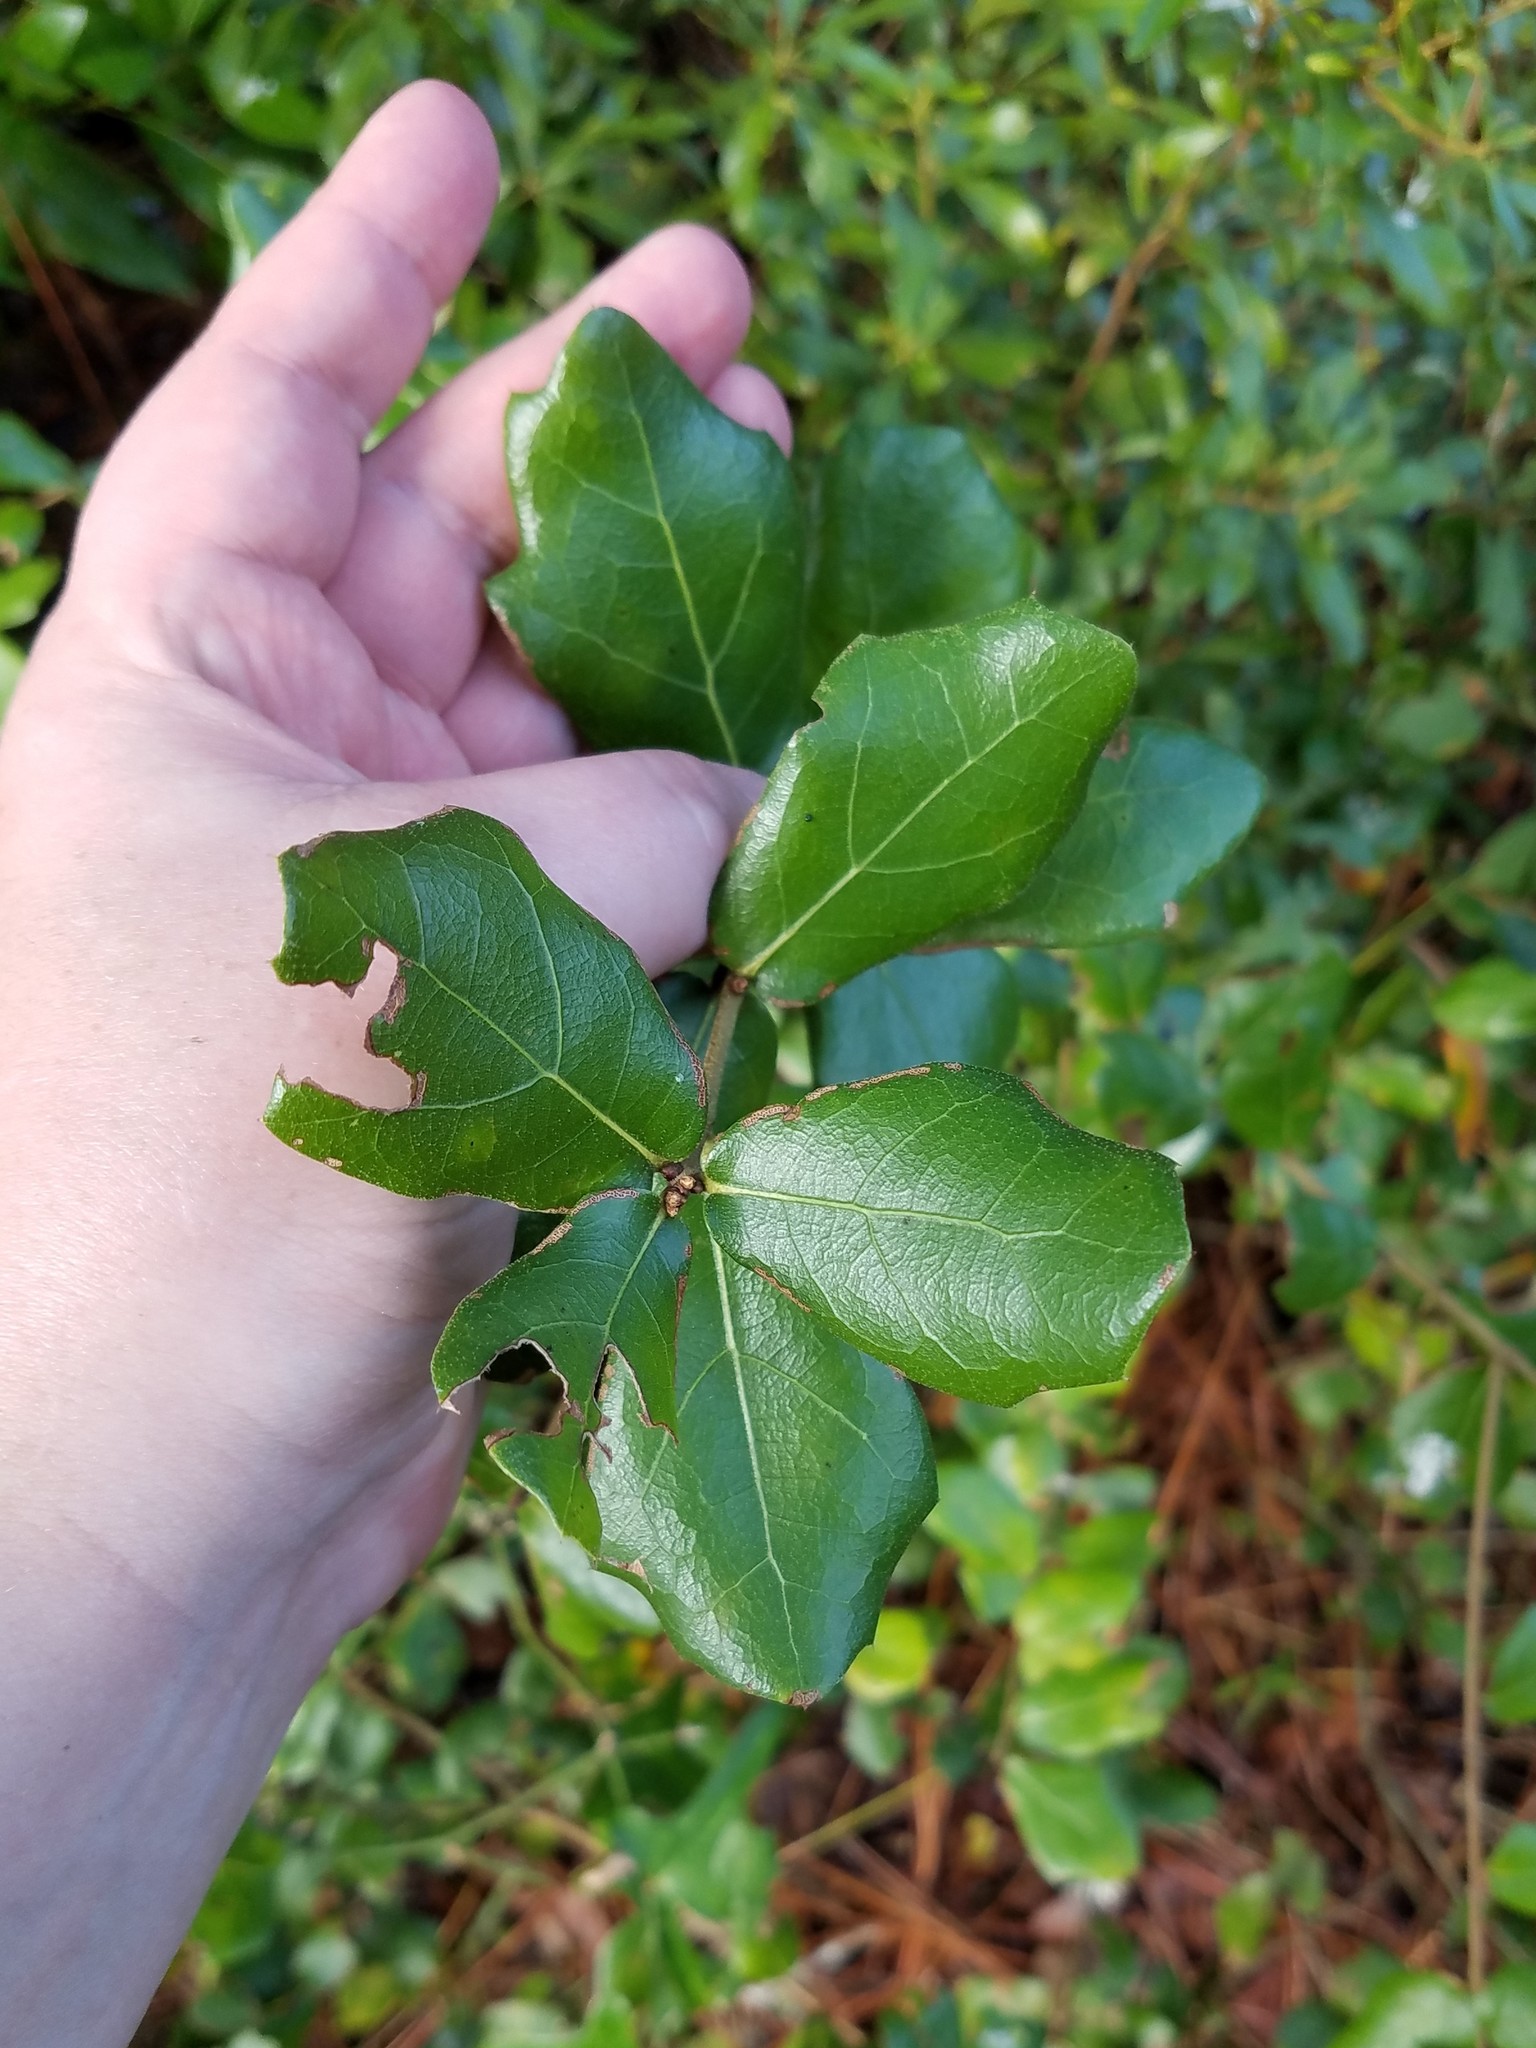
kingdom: Plantae
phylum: Tracheophyta
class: Magnoliopsida
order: Fagales
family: Fagaceae
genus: Quercus
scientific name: Quercus myrtifolia
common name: Myrtle oak
